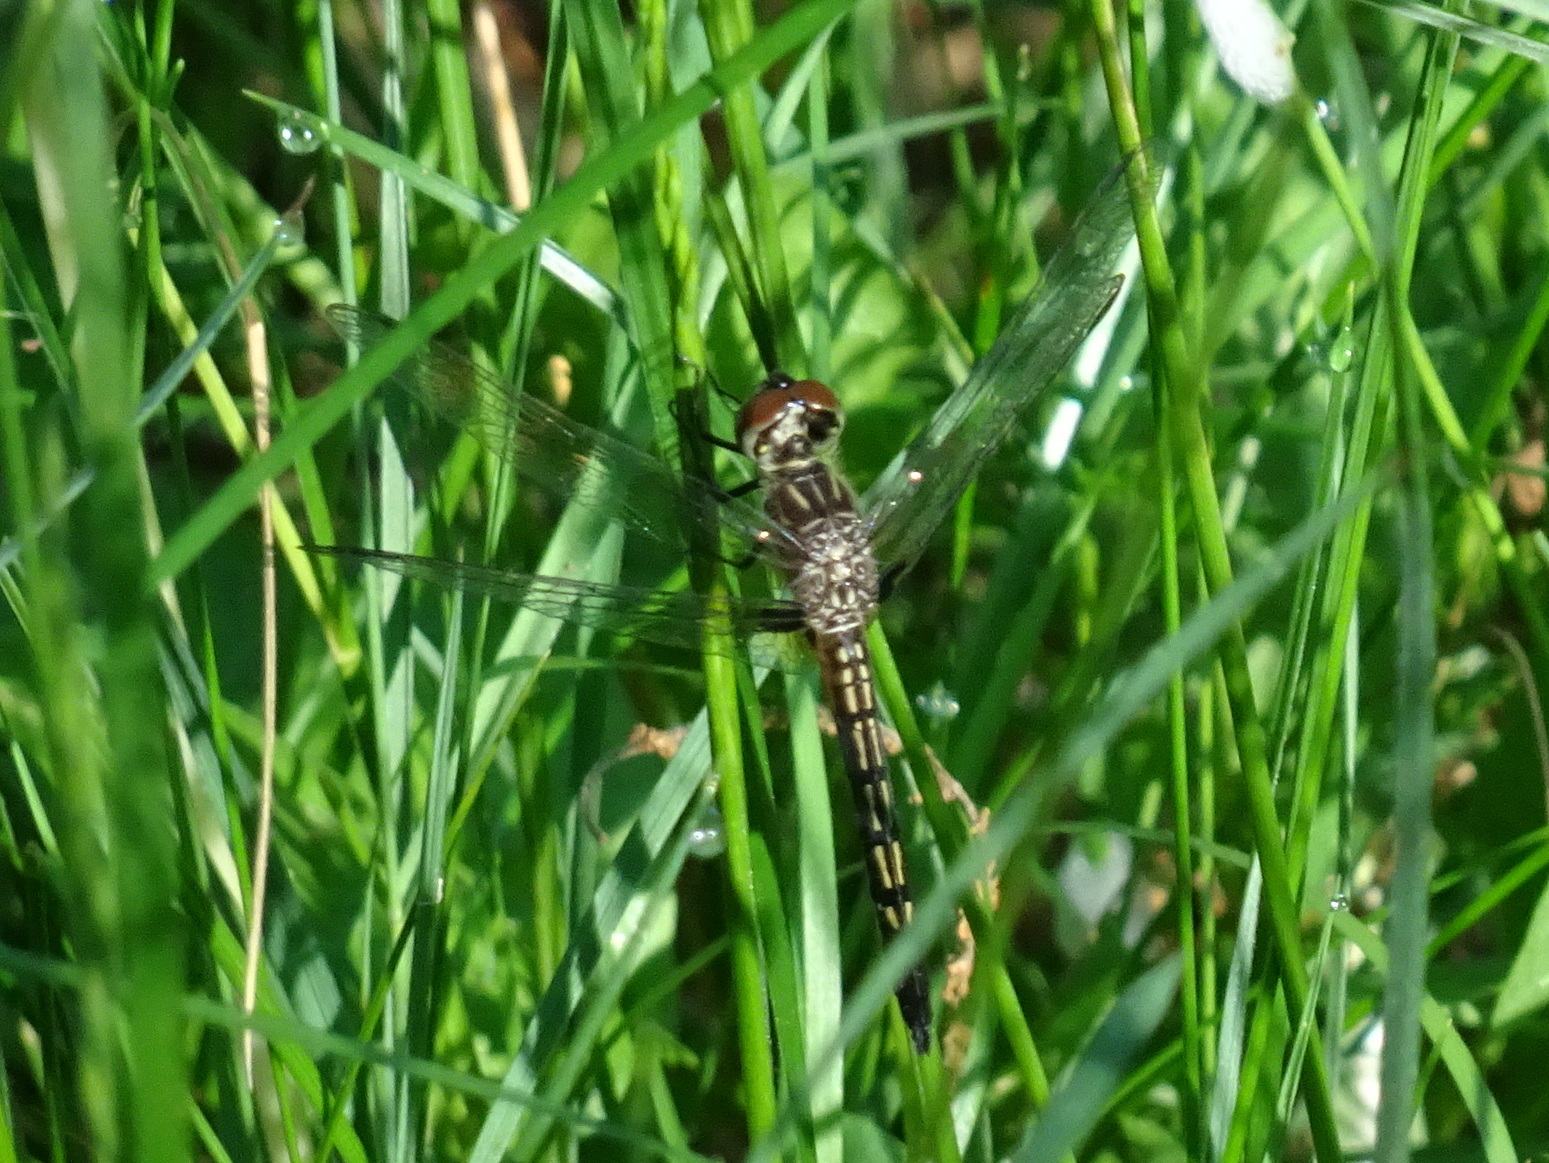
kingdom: Animalia
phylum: Arthropoda
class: Insecta
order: Odonata
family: Libellulidae
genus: Pachydiplax
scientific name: Pachydiplax longipennis
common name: Blue dasher
